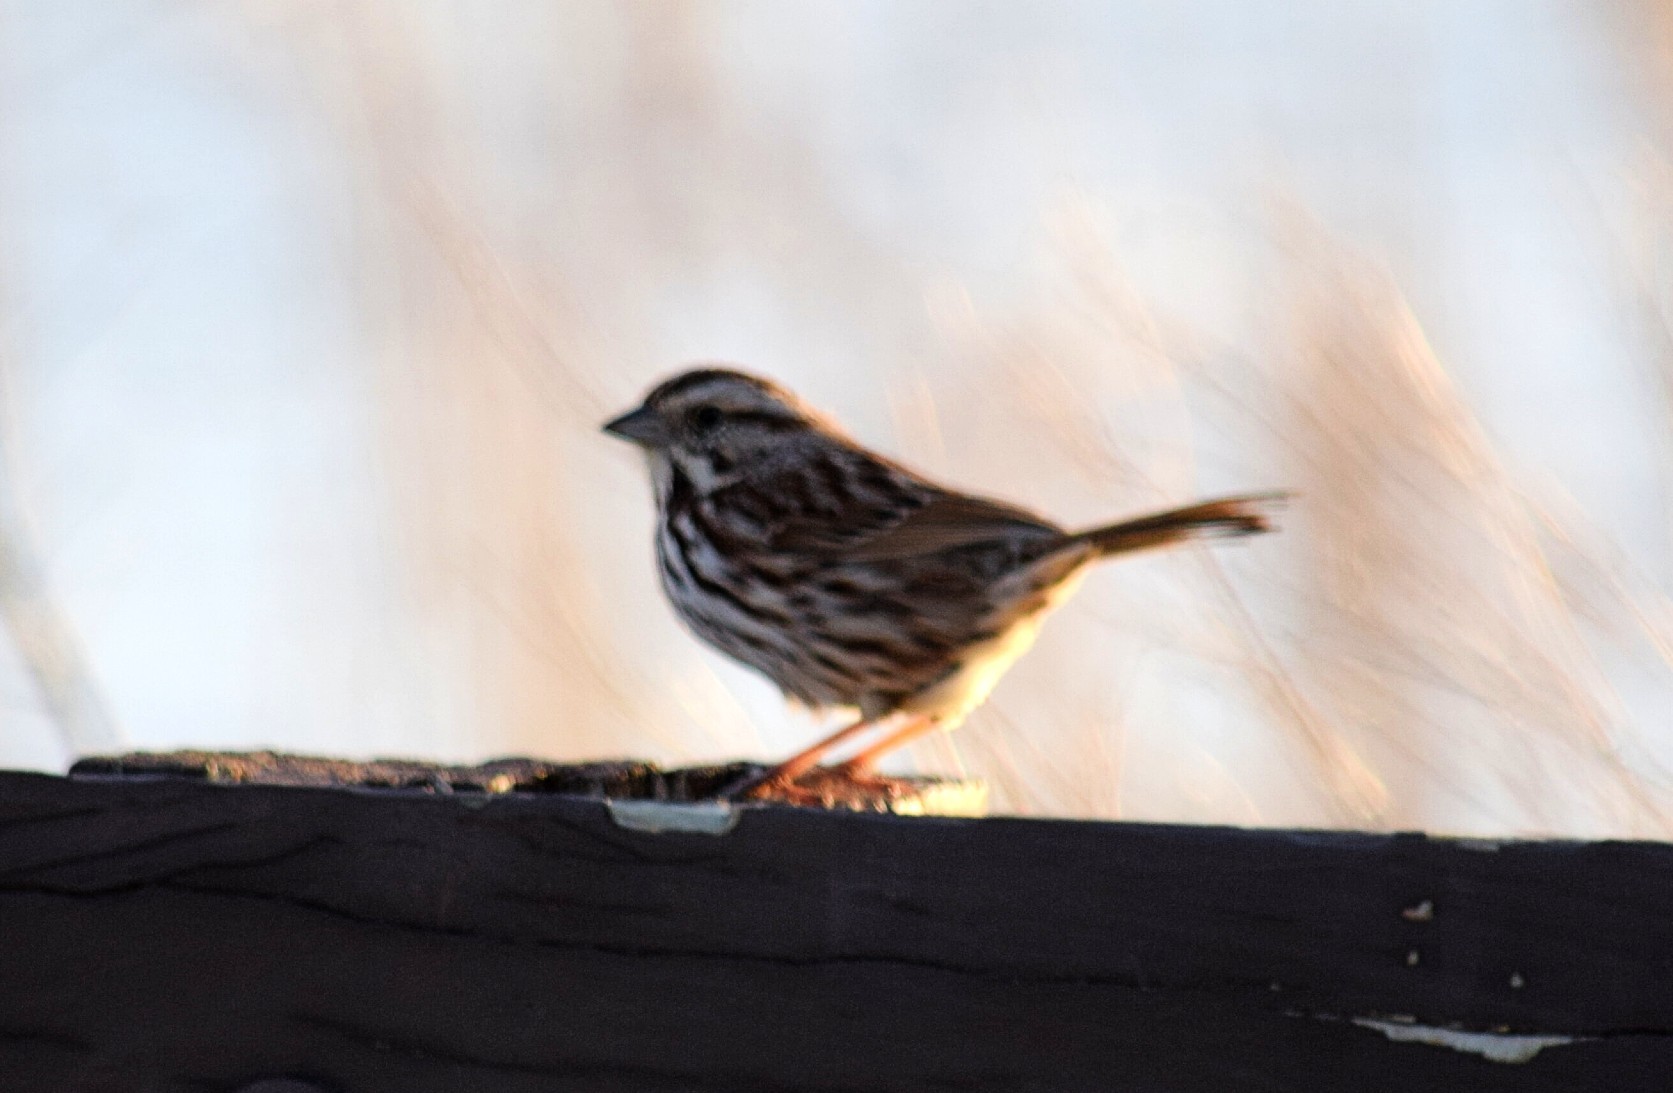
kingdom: Animalia
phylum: Chordata
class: Aves
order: Passeriformes
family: Passerellidae
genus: Melospiza
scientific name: Melospiza melodia
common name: Song sparrow
